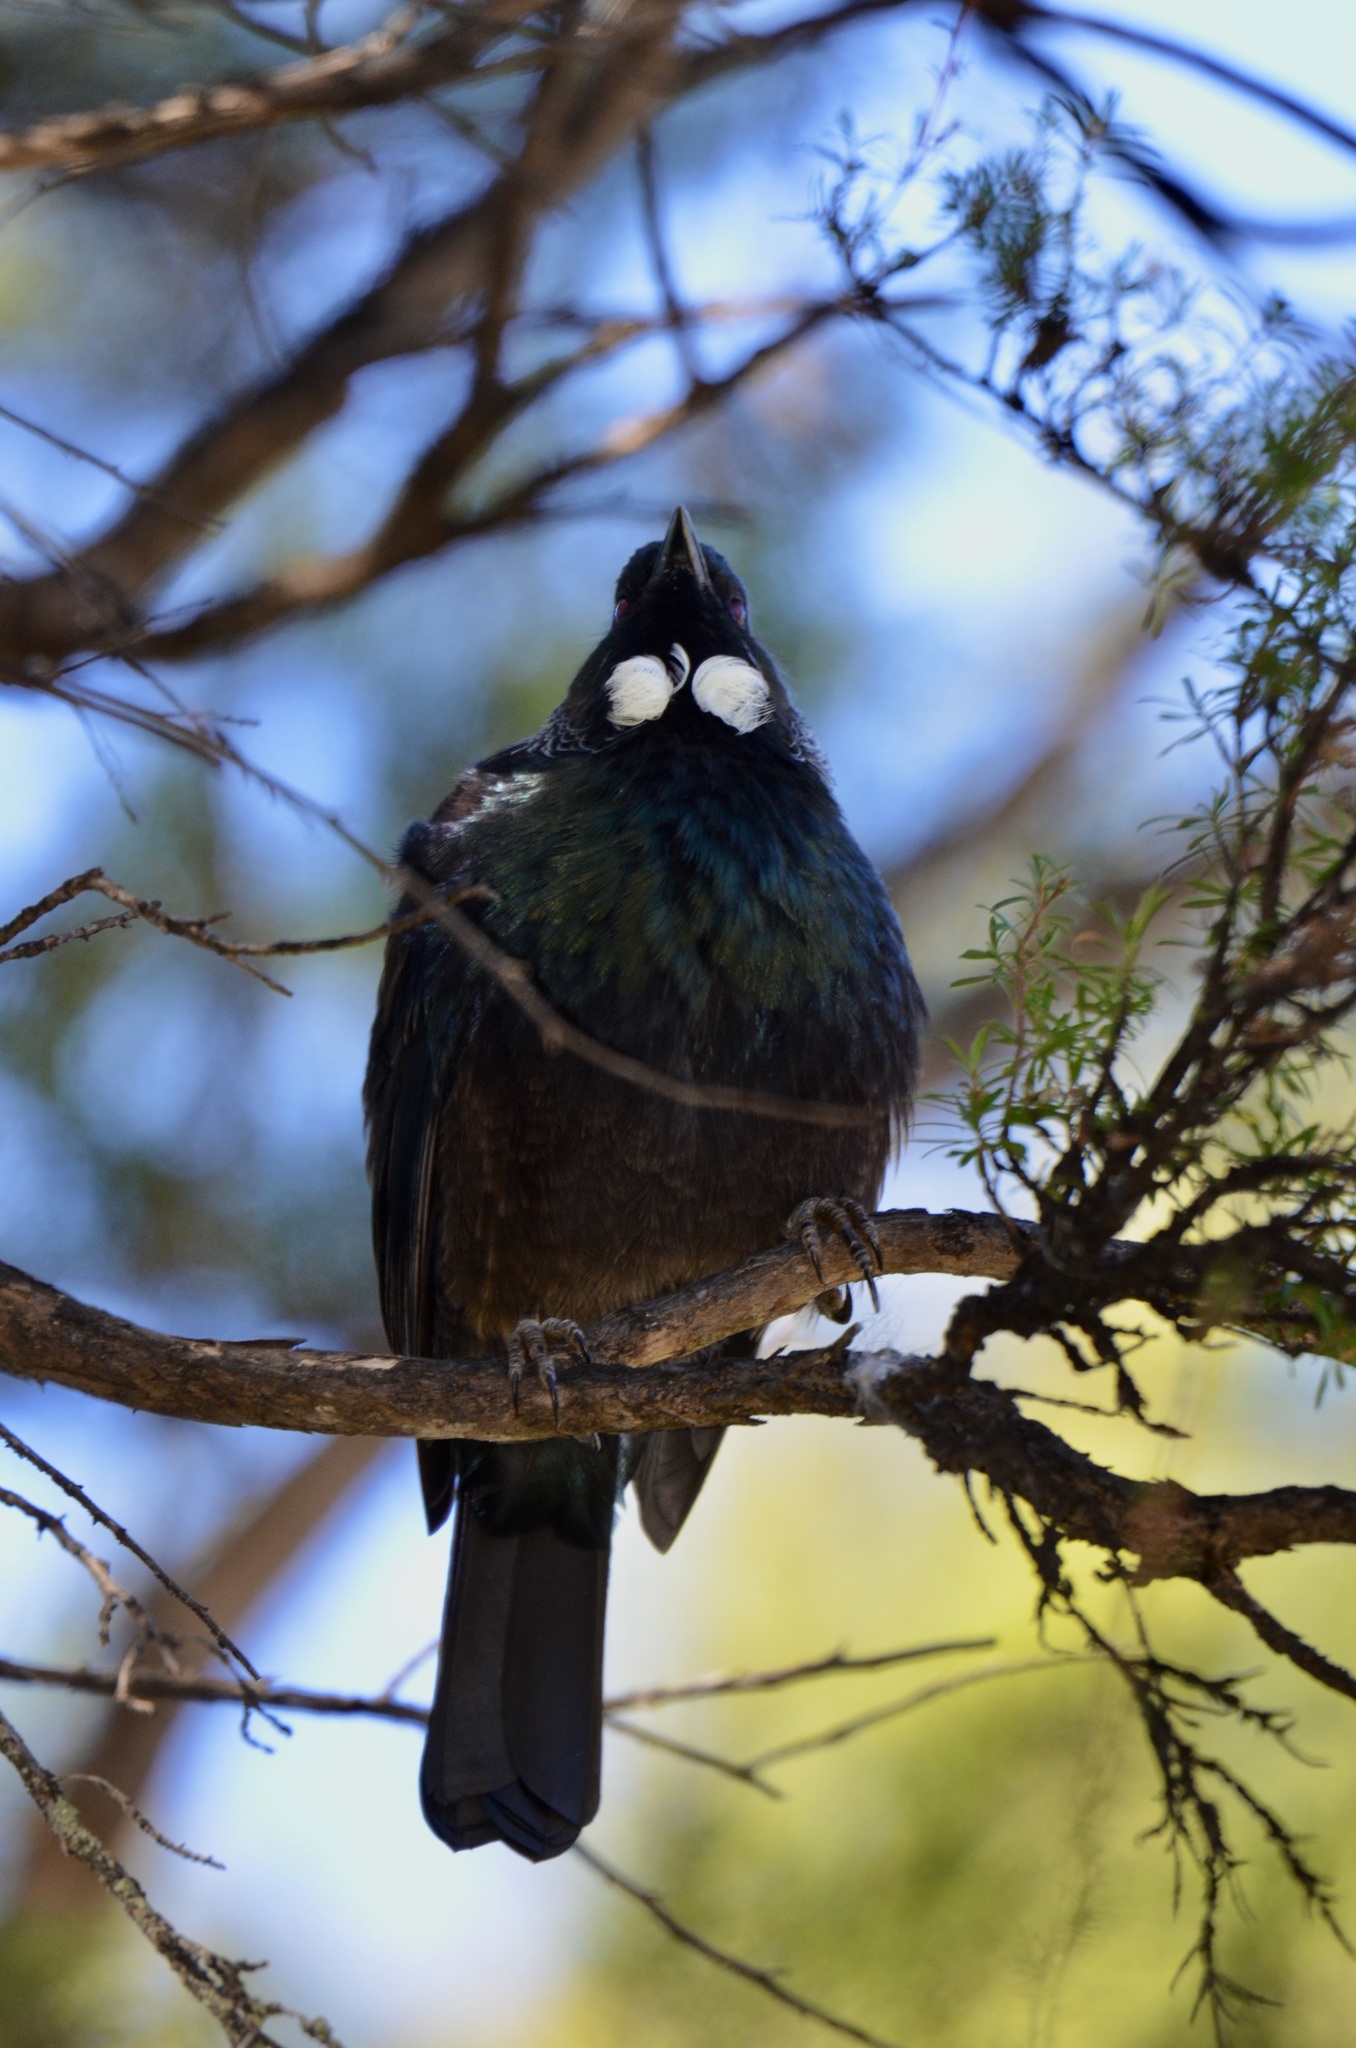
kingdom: Animalia
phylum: Chordata
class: Aves
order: Passeriformes
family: Meliphagidae
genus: Prosthemadera
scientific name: Prosthemadera novaeseelandiae
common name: Tui
